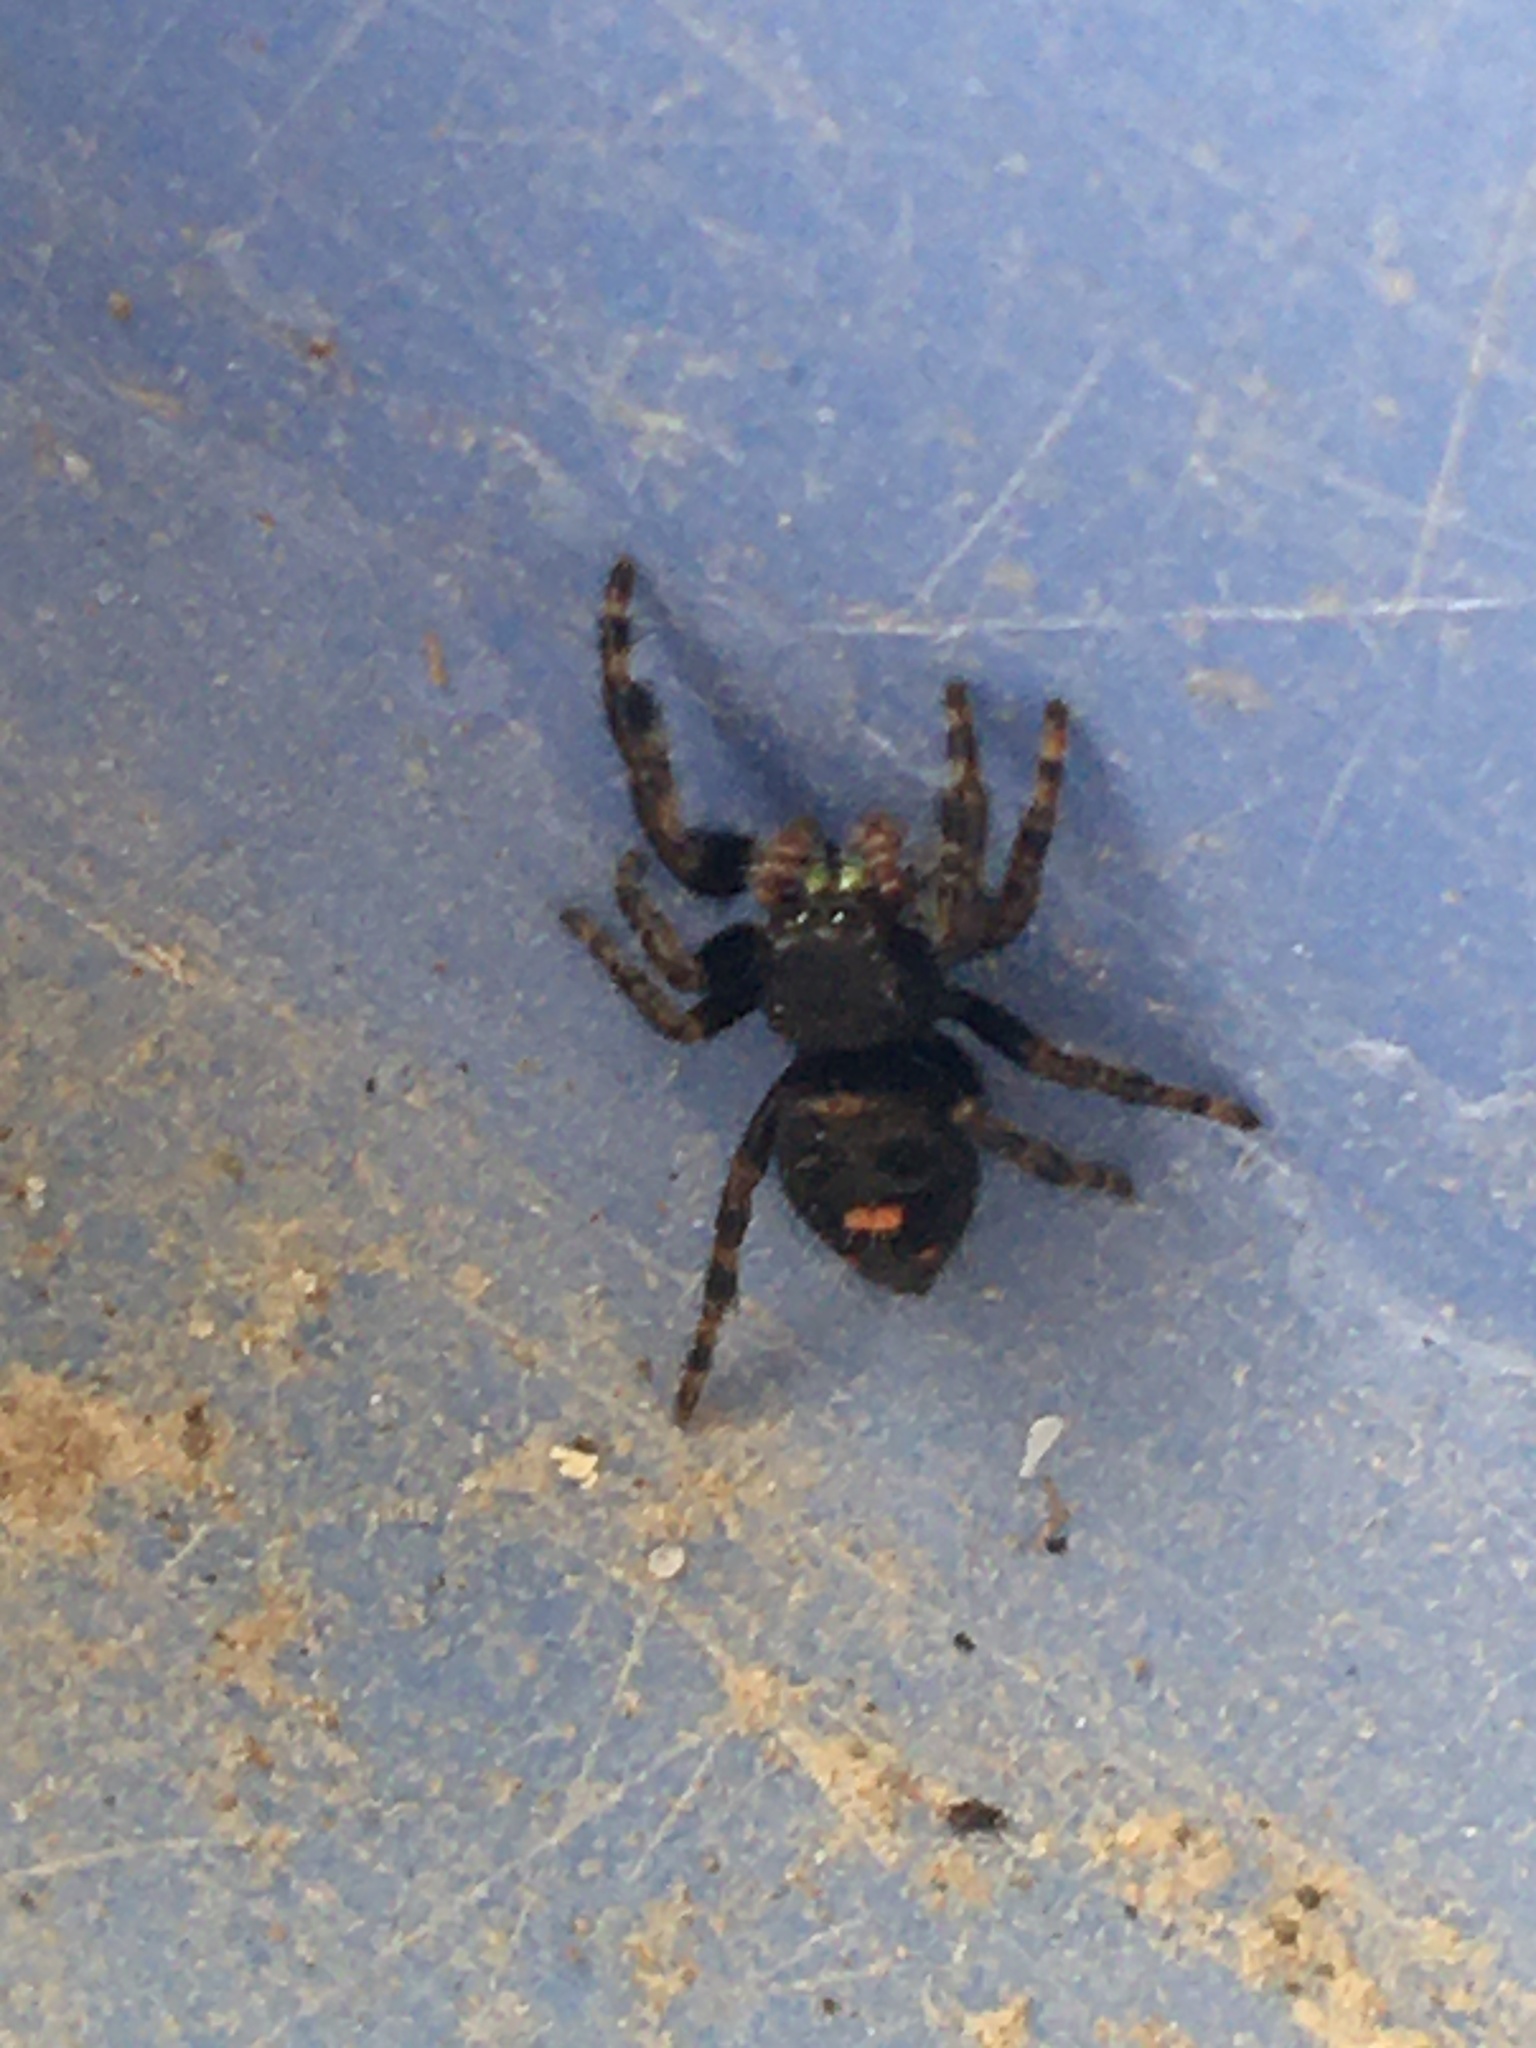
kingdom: Animalia
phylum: Arthropoda
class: Arachnida
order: Araneae
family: Salticidae
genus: Phidippus
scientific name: Phidippus audax
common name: Bold jumper
